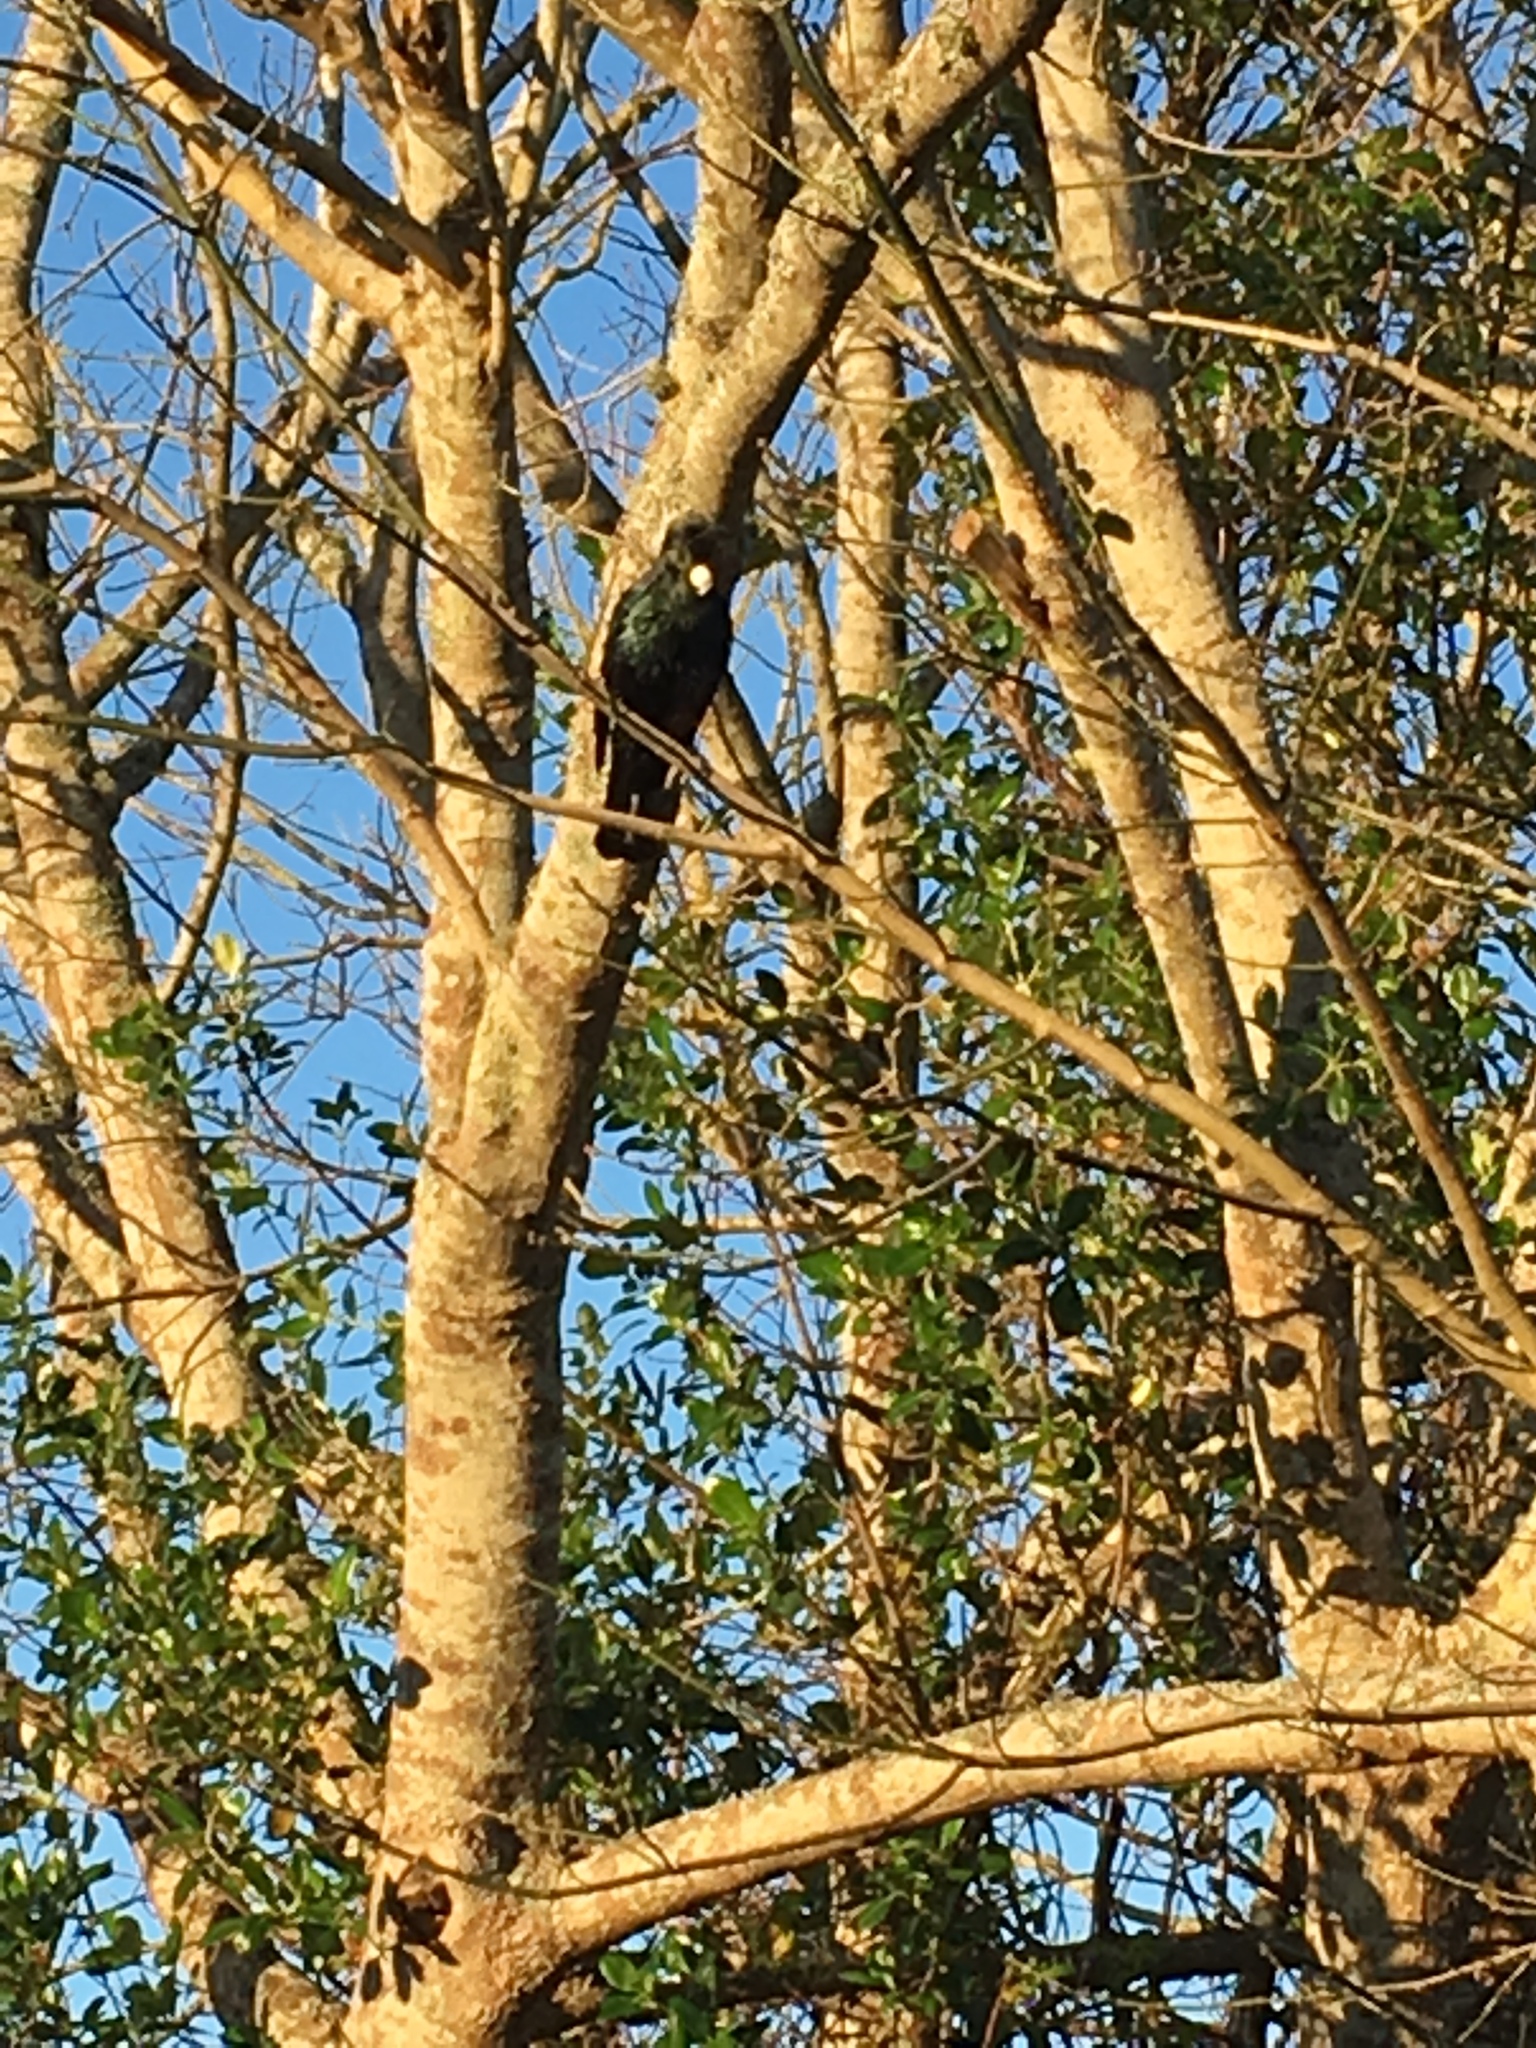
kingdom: Animalia
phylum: Chordata
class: Aves
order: Passeriformes
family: Meliphagidae
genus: Prosthemadera
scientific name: Prosthemadera novaeseelandiae
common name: Tui
